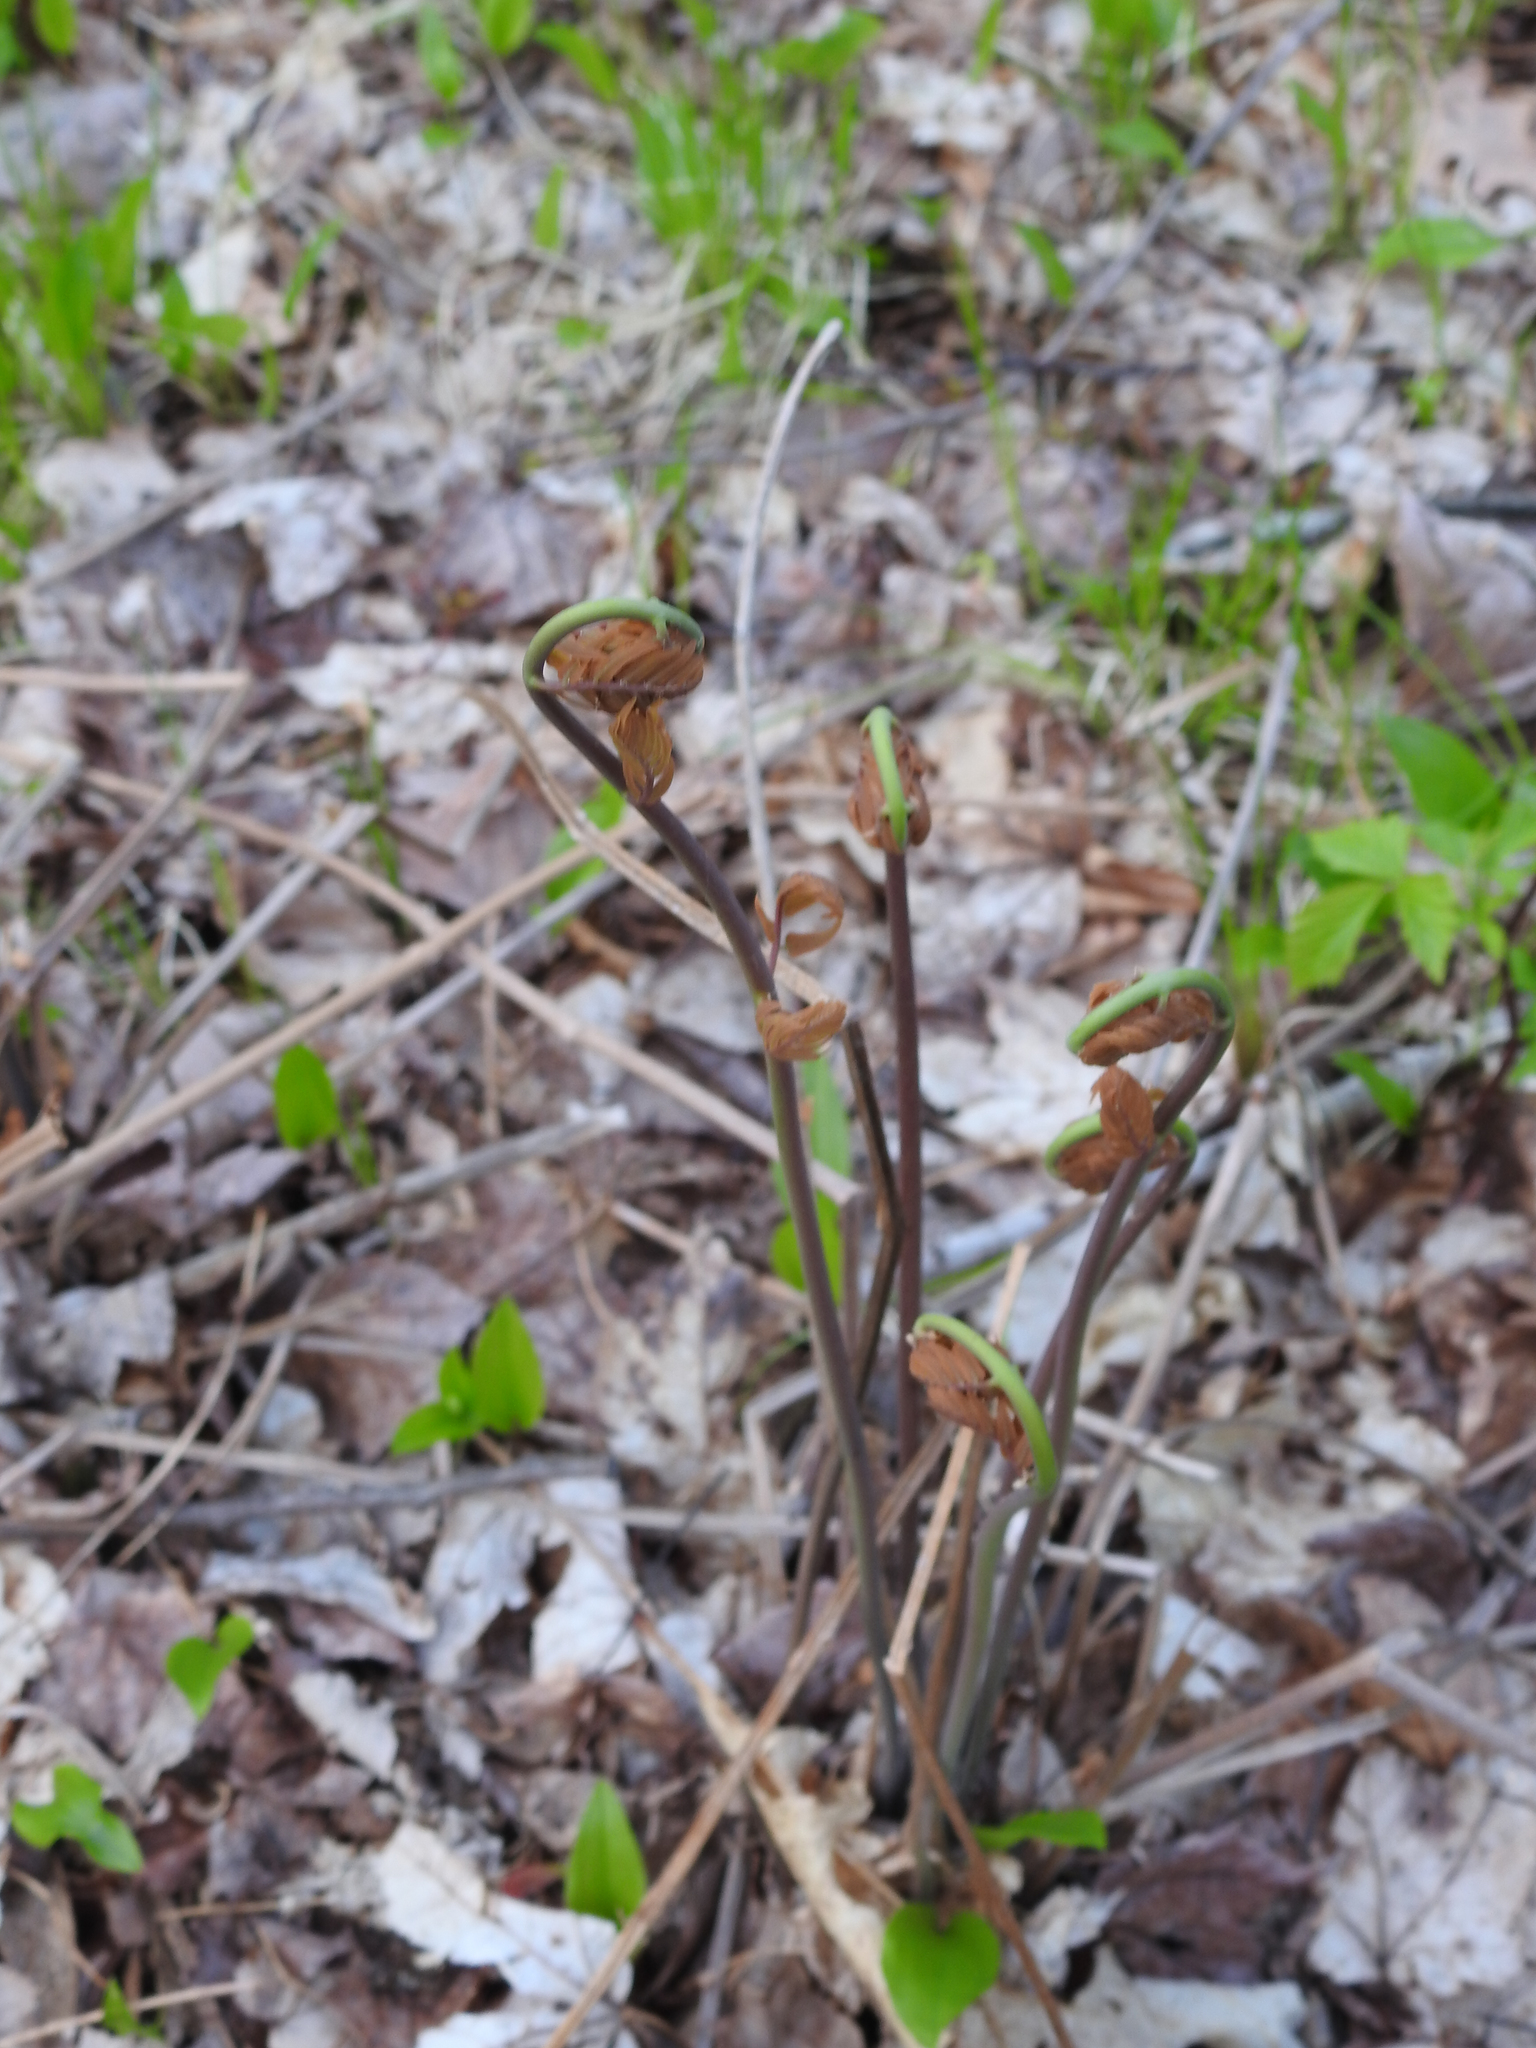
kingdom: Plantae
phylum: Tracheophyta
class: Polypodiopsida
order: Osmundales
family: Osmundaceae
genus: Osmunda
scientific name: Osmunda spectabilis
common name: American royal fern
